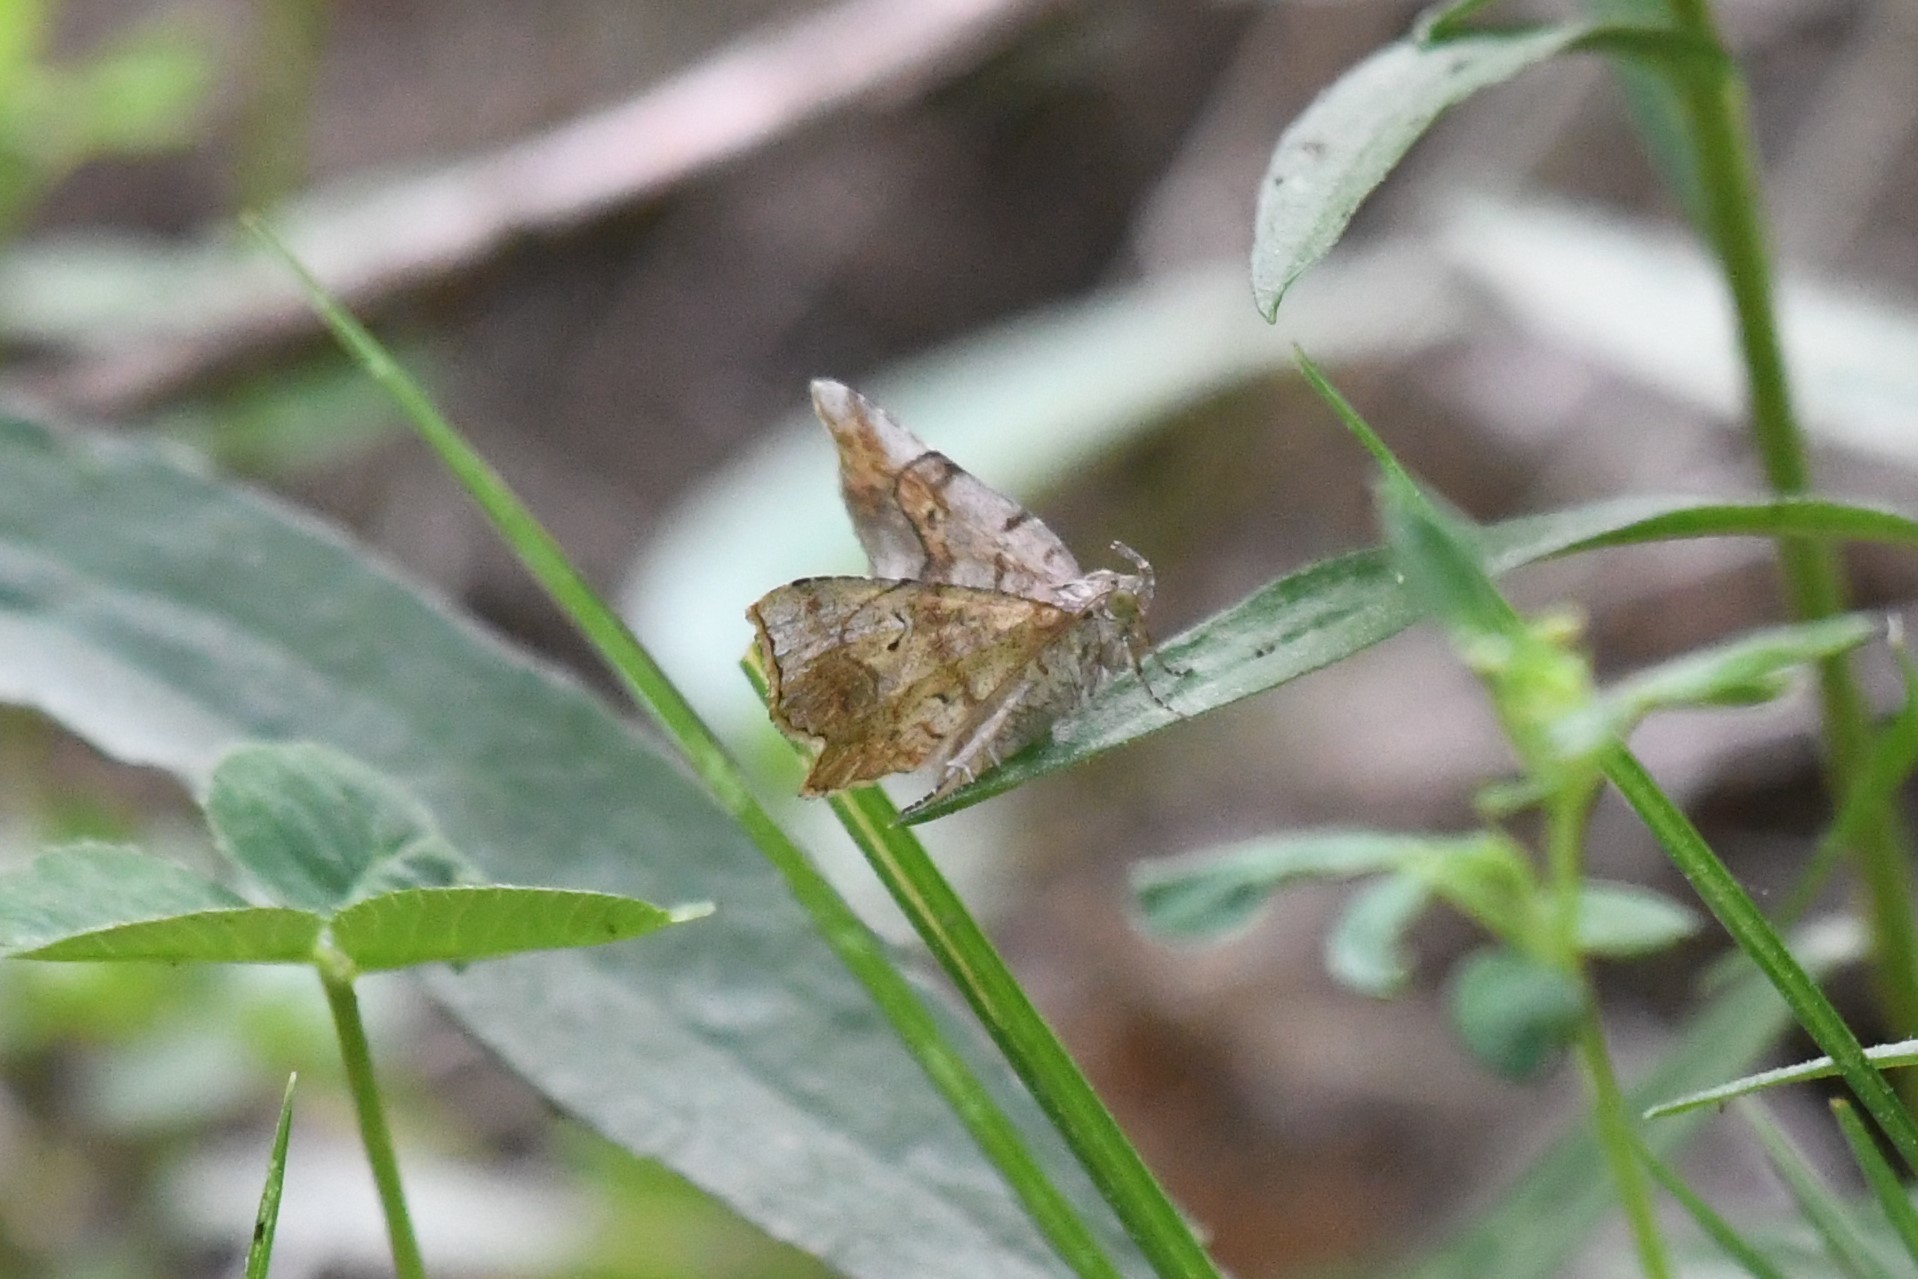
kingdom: Animalia
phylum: Arthropoda
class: Insecta
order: Lepidoptera
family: Erebidae
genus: Pangrapta
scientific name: Pangrapta decoralis
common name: Decorated owlet
